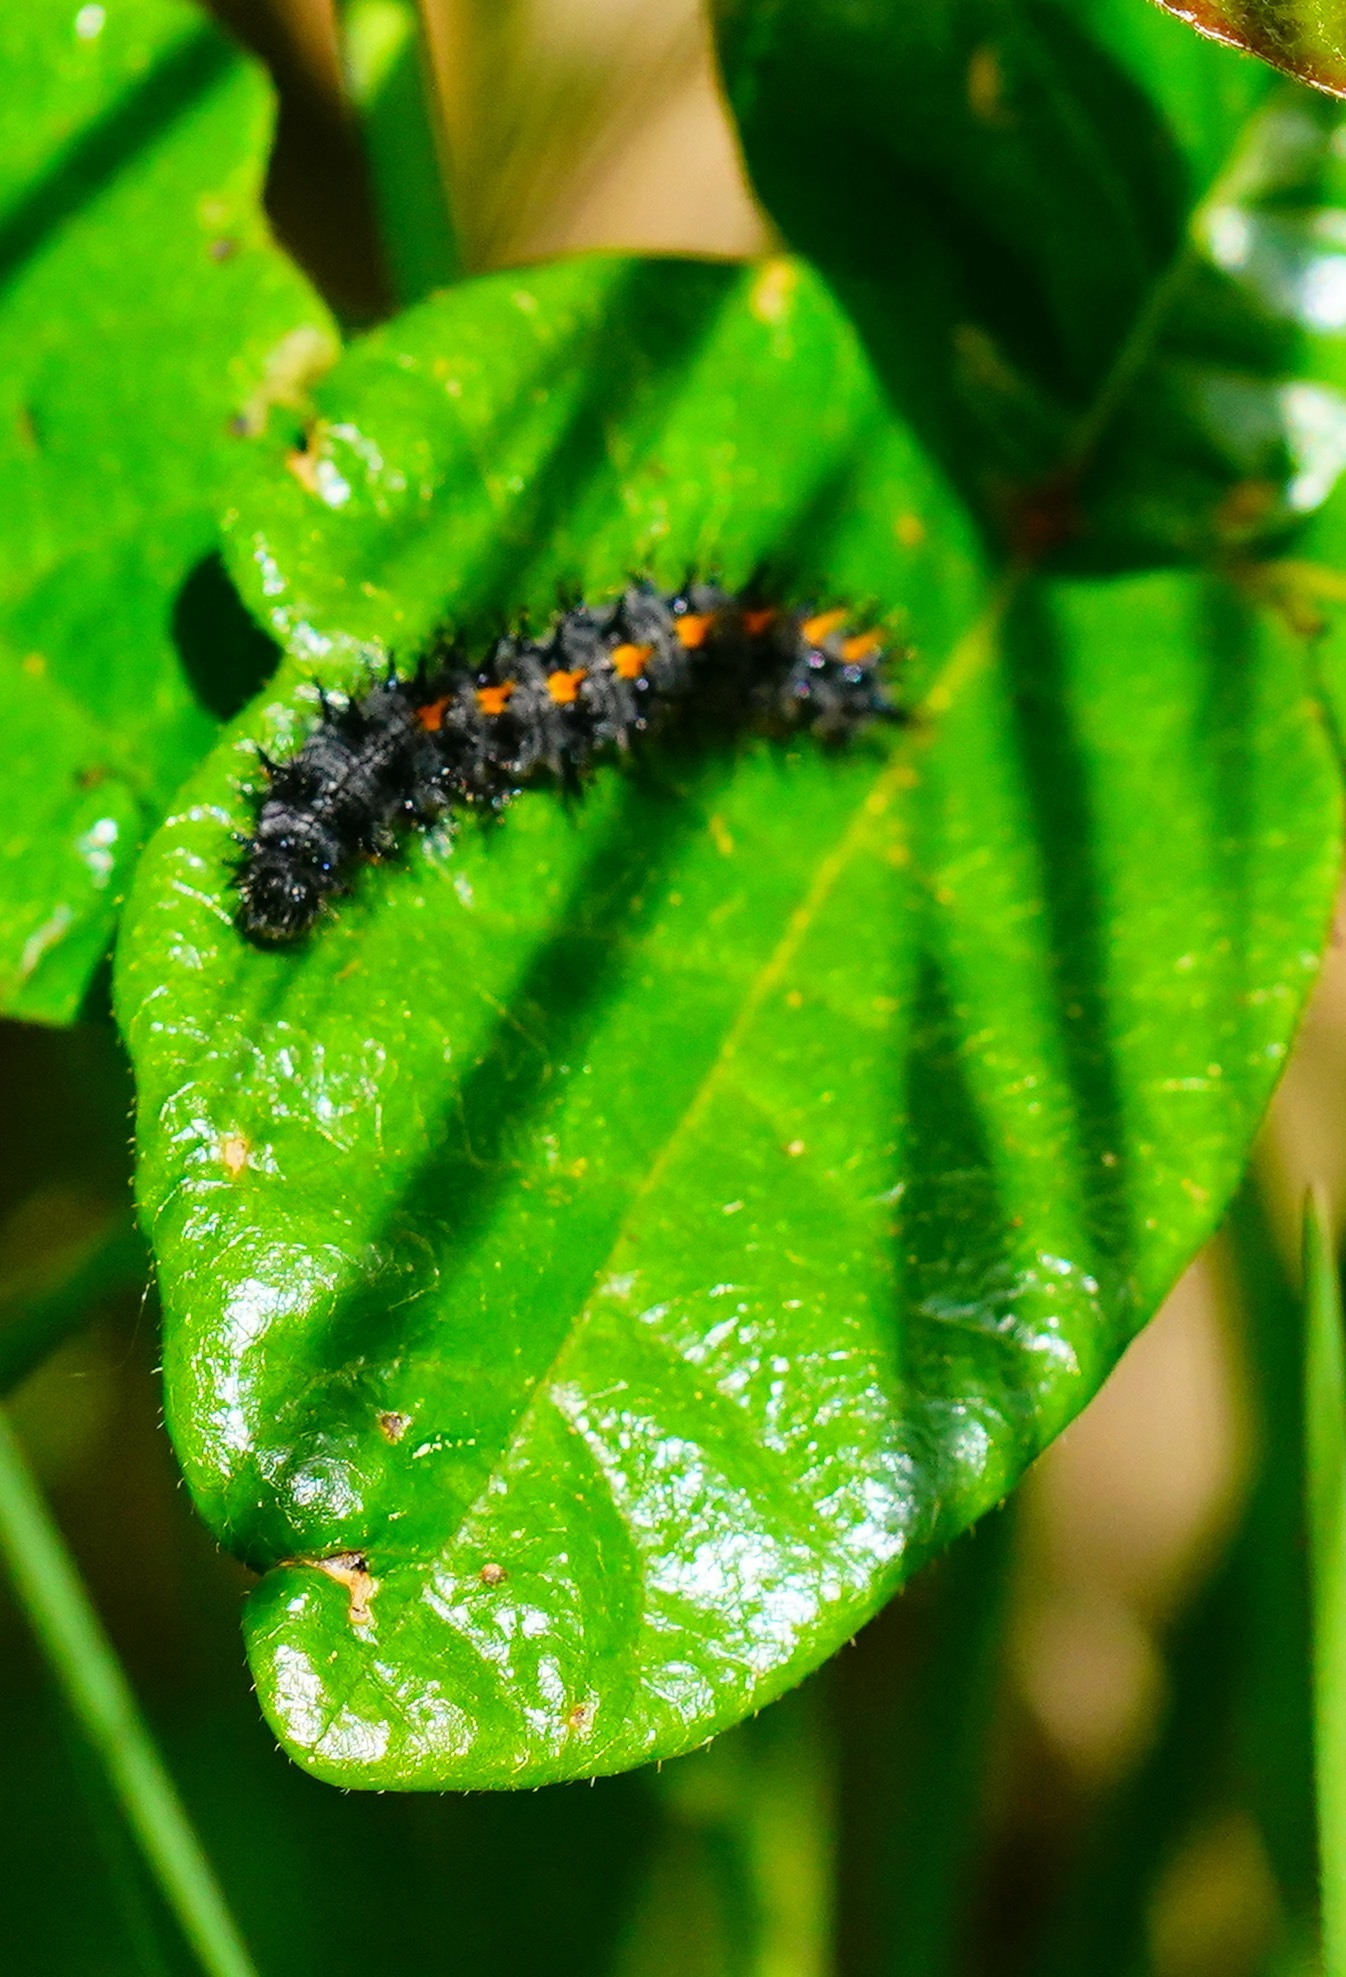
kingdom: Animalia
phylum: Arthropoda
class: Insecta
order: Lepidoptera
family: Nymphalidae
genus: Occidryas
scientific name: Occidryas chalcedona
